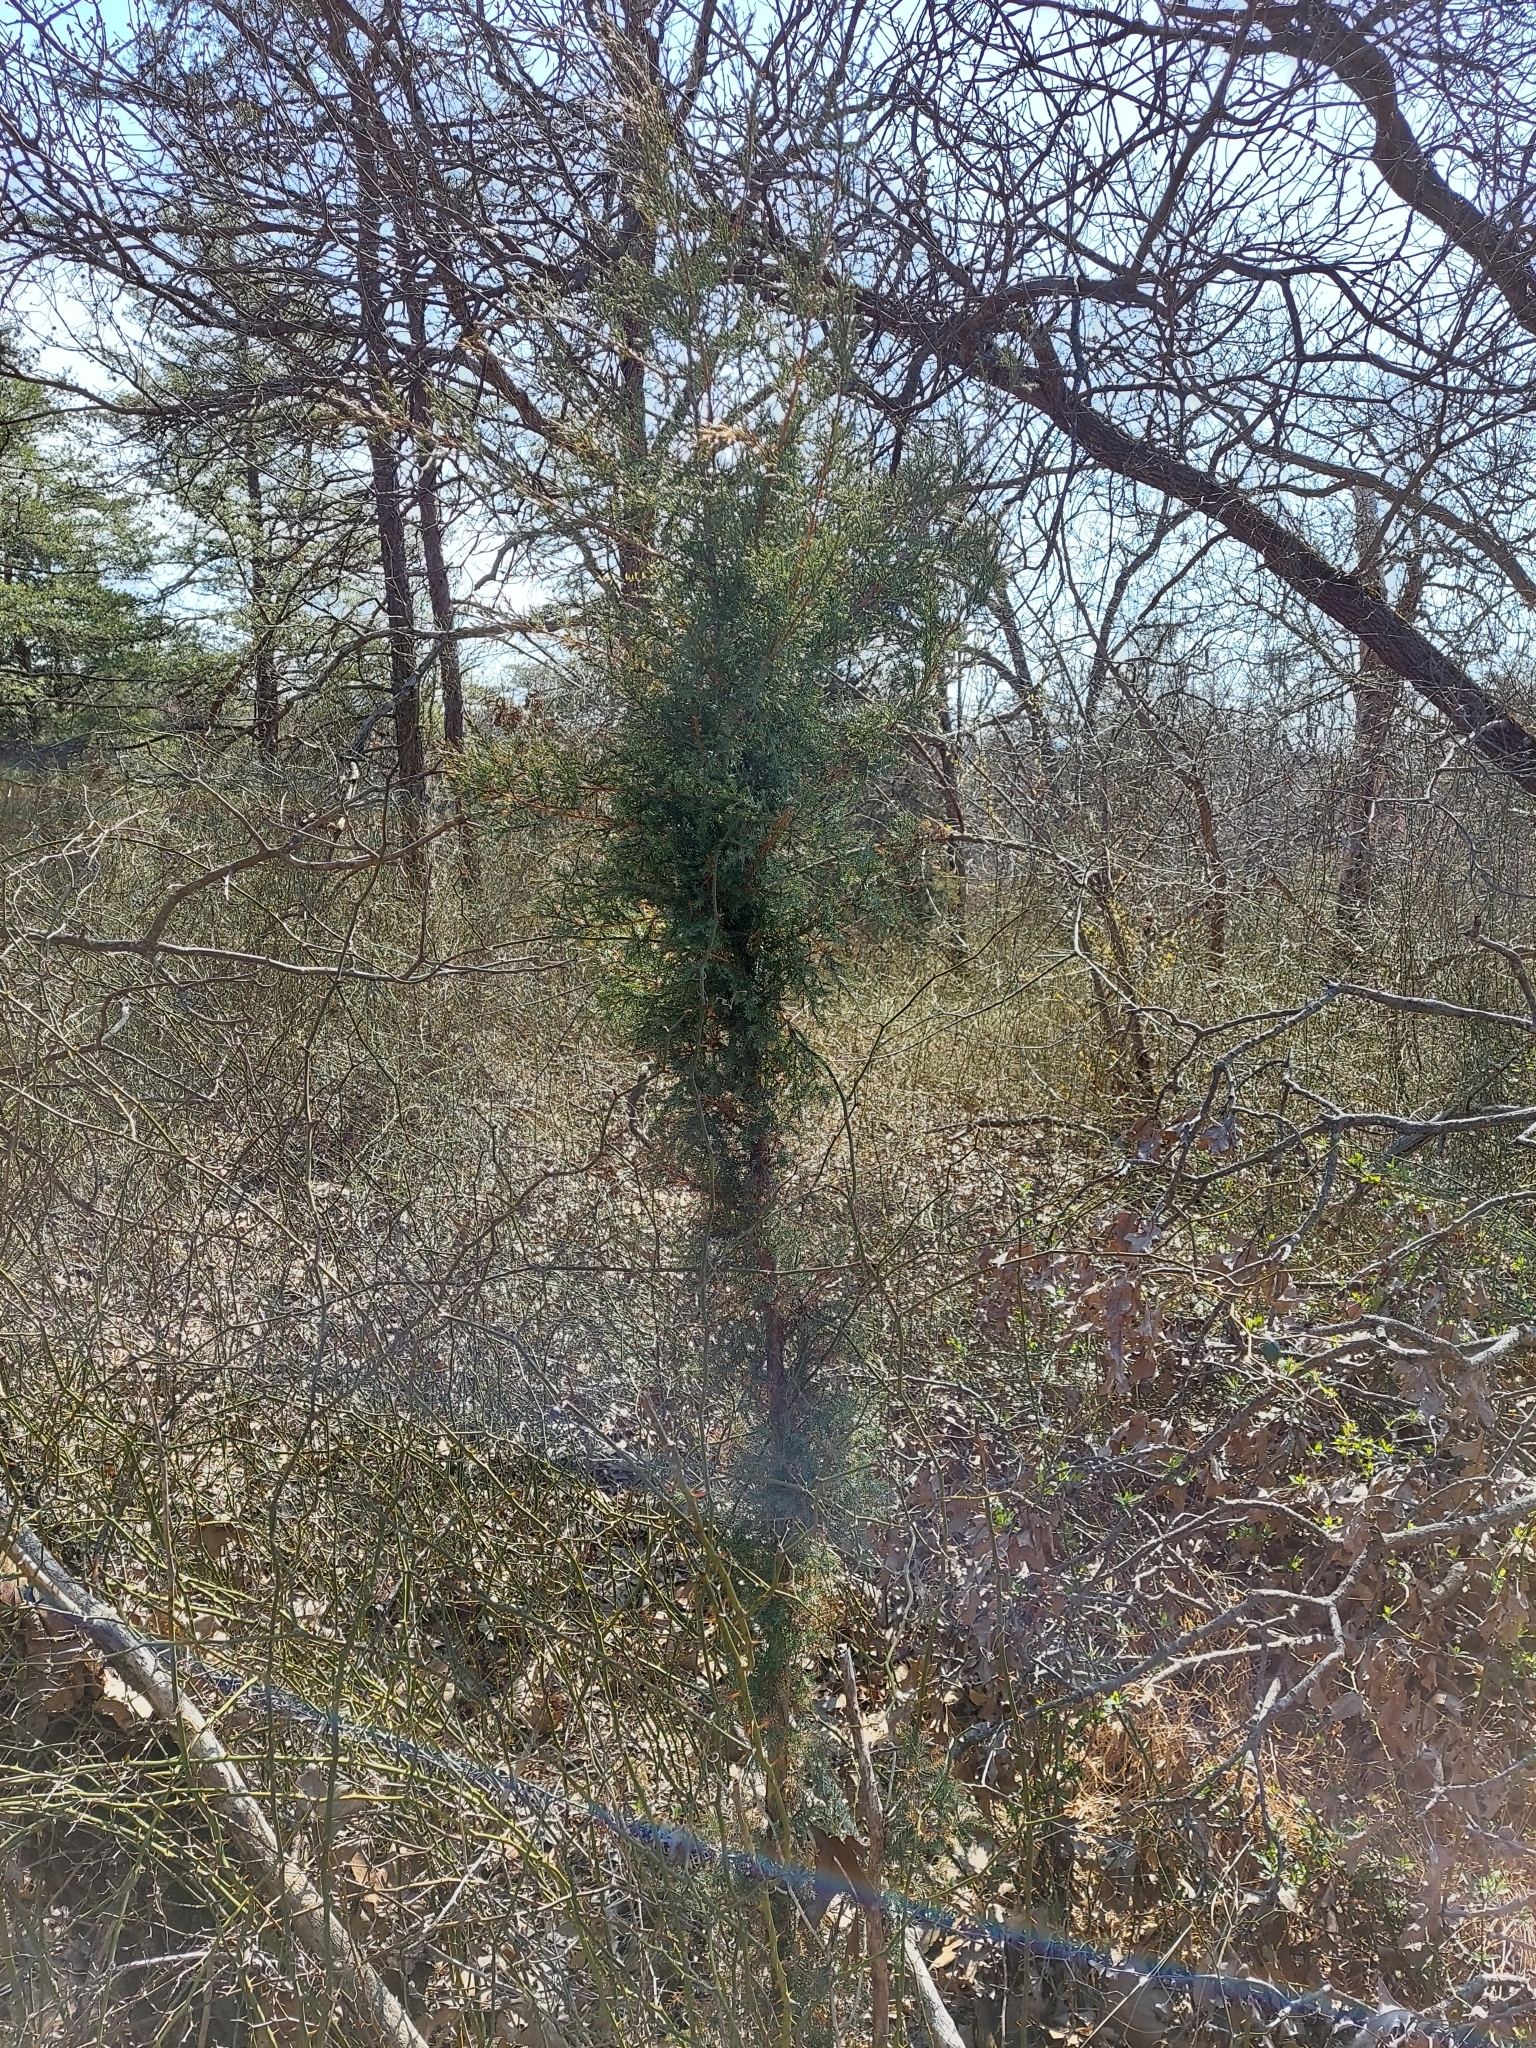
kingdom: Plantae
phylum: Tracheophyta
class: Pinopsida
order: Pinales
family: Cupressaceae
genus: Juniperus
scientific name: Juniperus virginiana
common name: Red juniper
